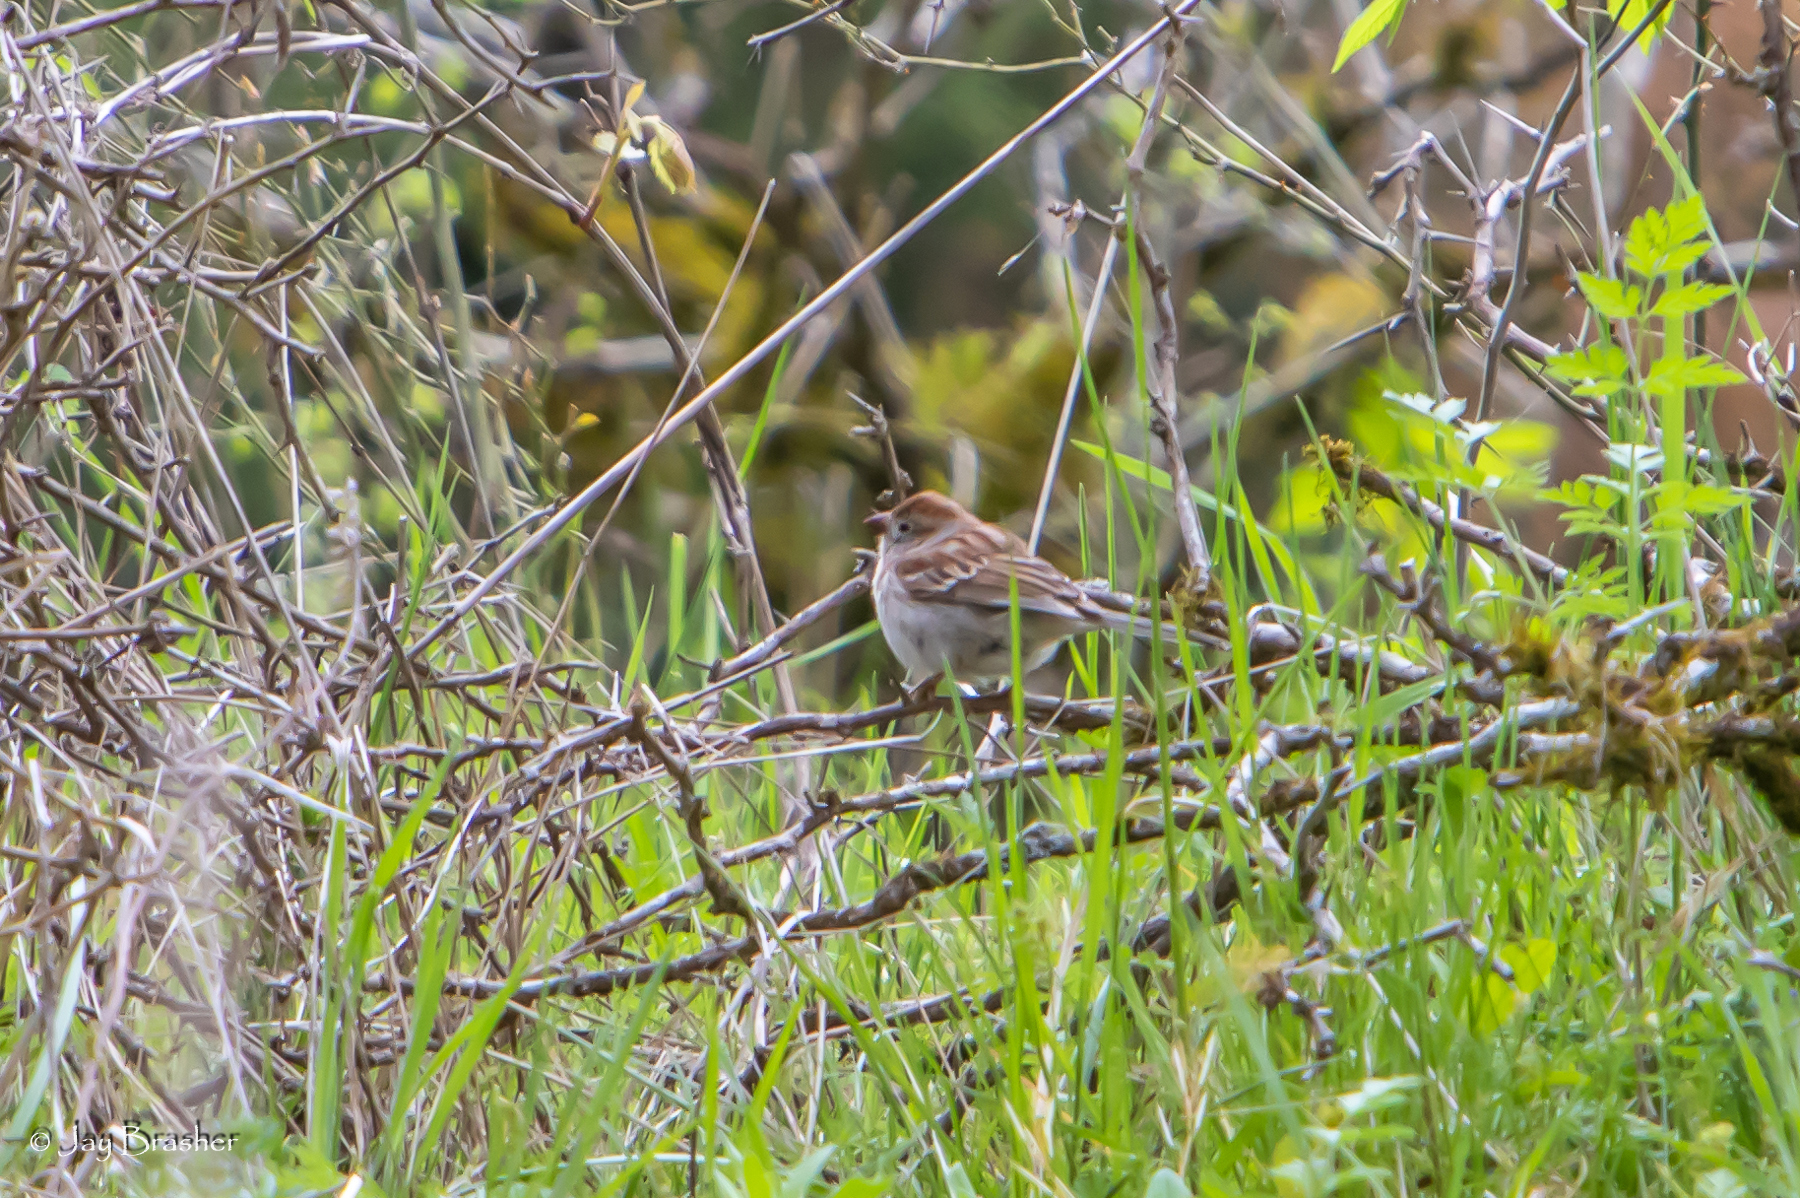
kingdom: Animalia
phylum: Chordata
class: Aves
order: Passeriformes
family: Passerellidae
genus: Spizella
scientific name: Spizella pusilla
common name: Field sparrow
